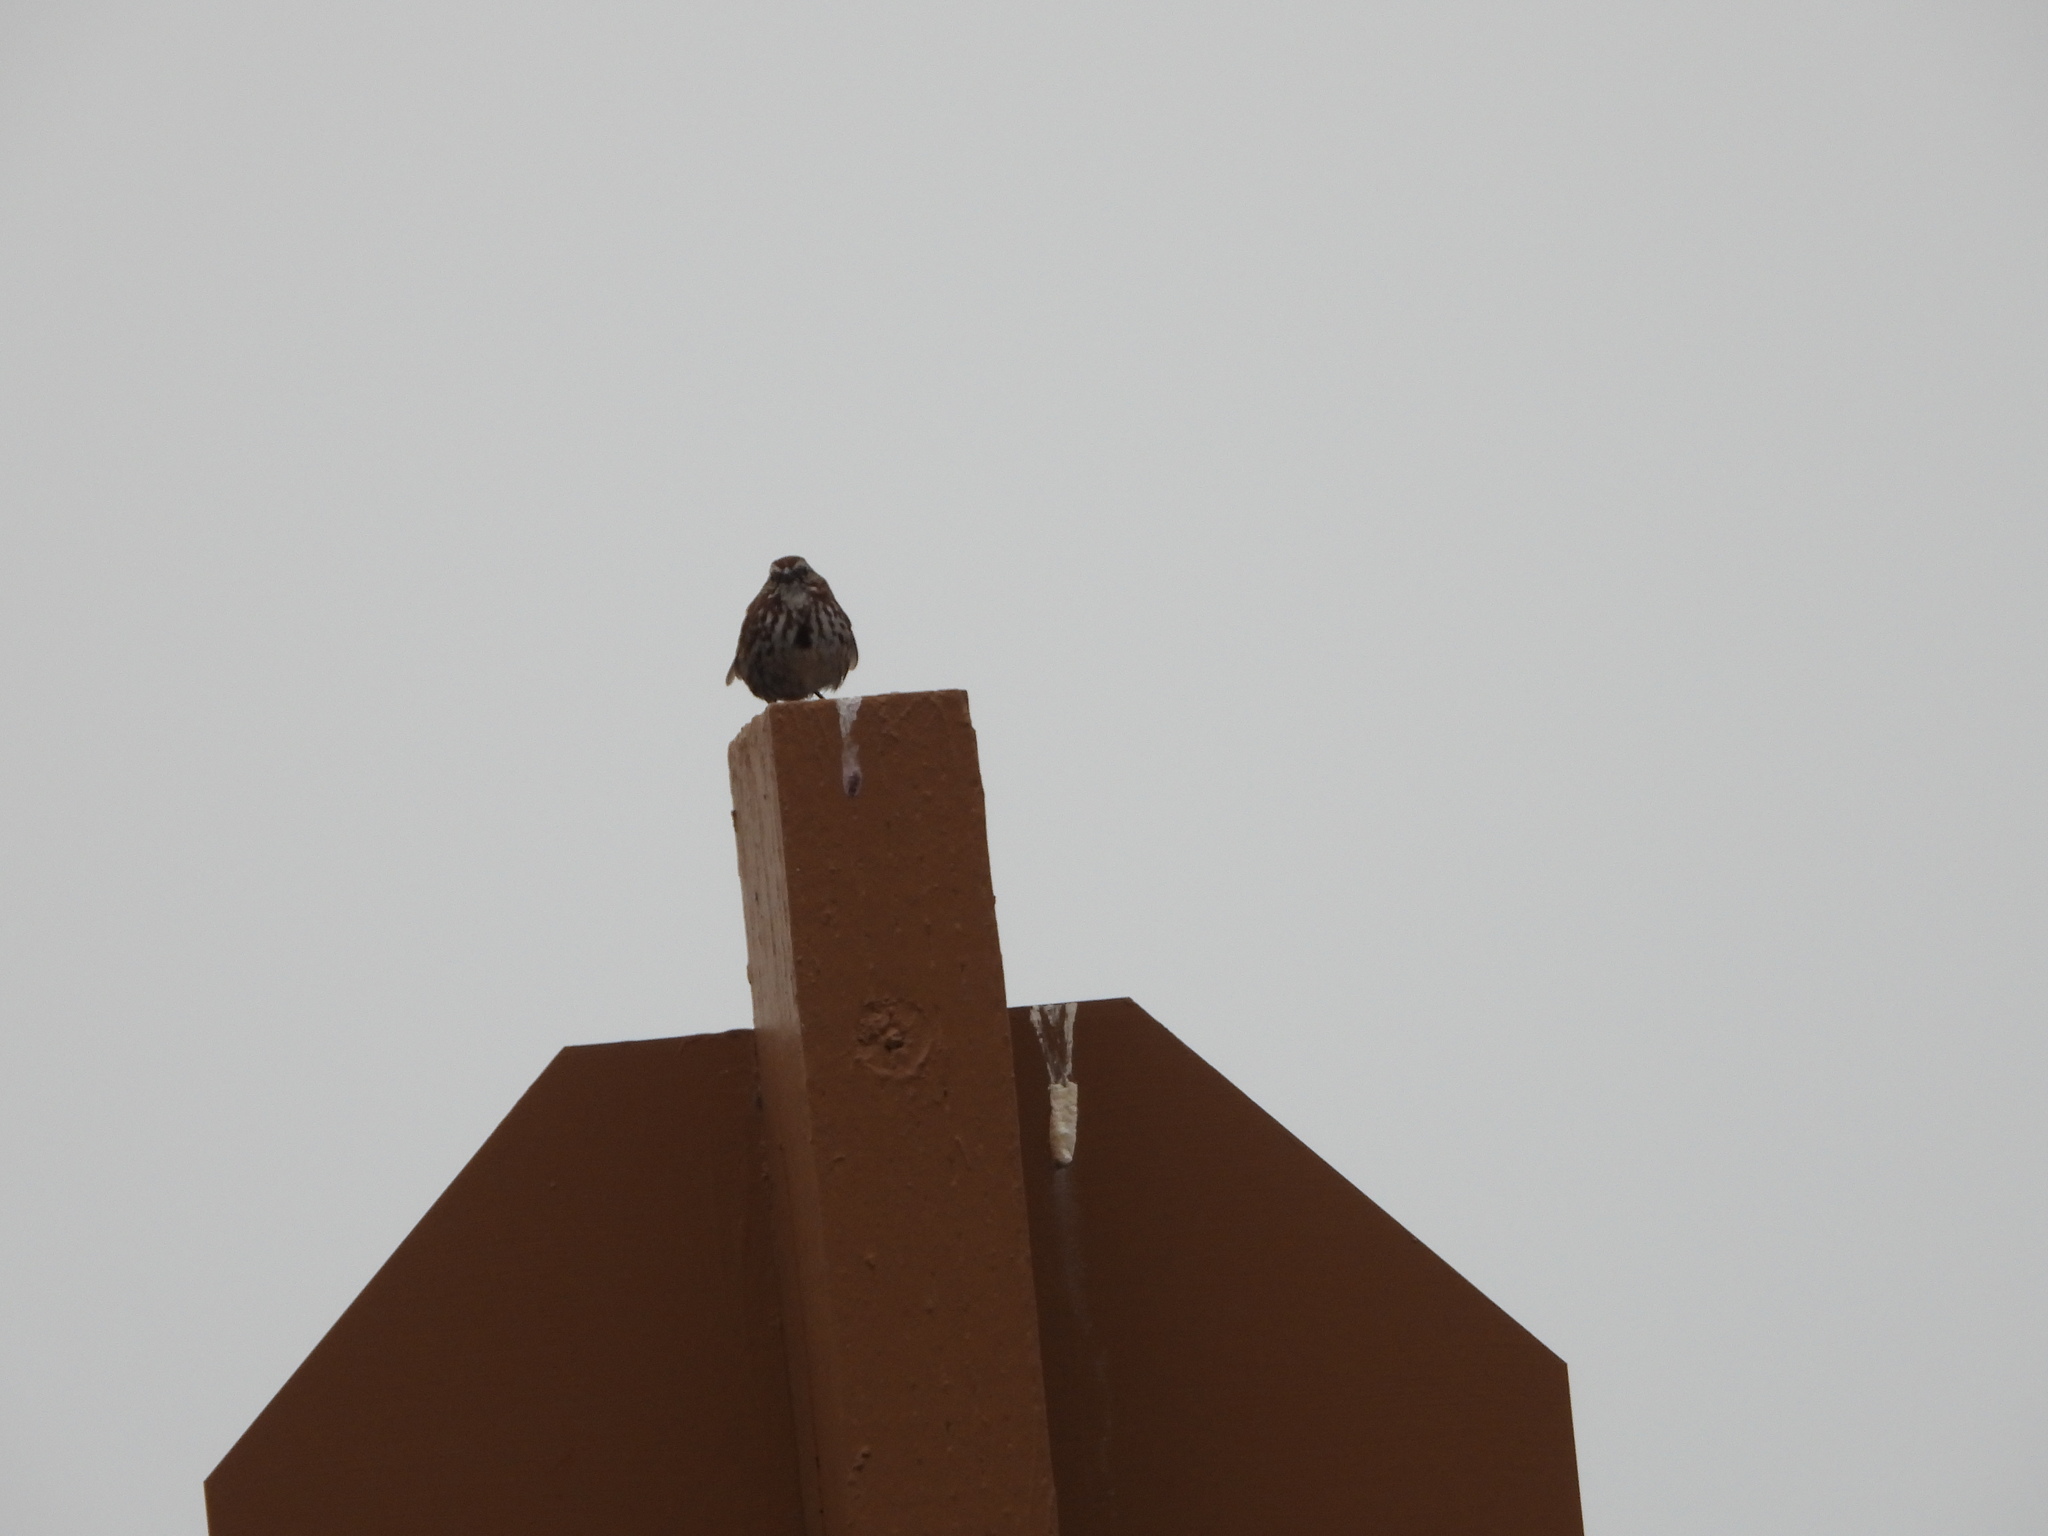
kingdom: Animalia
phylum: Chordata
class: Aves
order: Passeriformes
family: Passerellidae
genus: Melospiza
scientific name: Melospiza melodia
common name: Song sparrow
